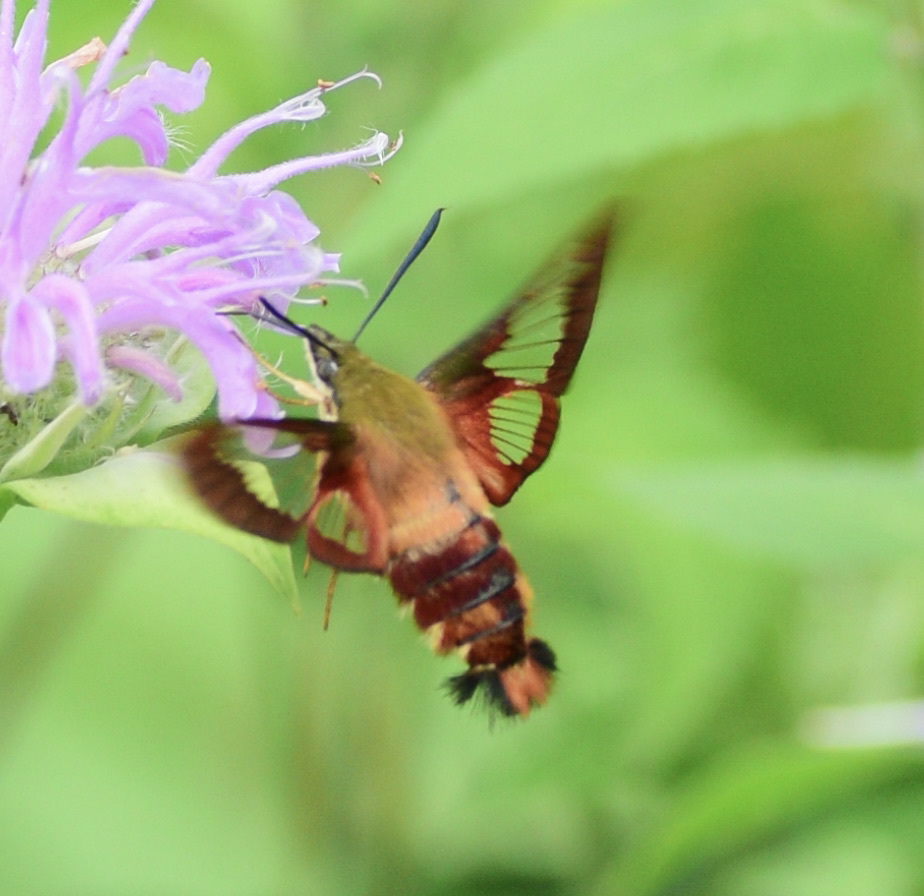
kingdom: Animalia
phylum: Arthropoda
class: Insecta
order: Lepidoptera
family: Sphingidae
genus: Hemaris
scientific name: Hemaris thysbe
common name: Common clear-wing
